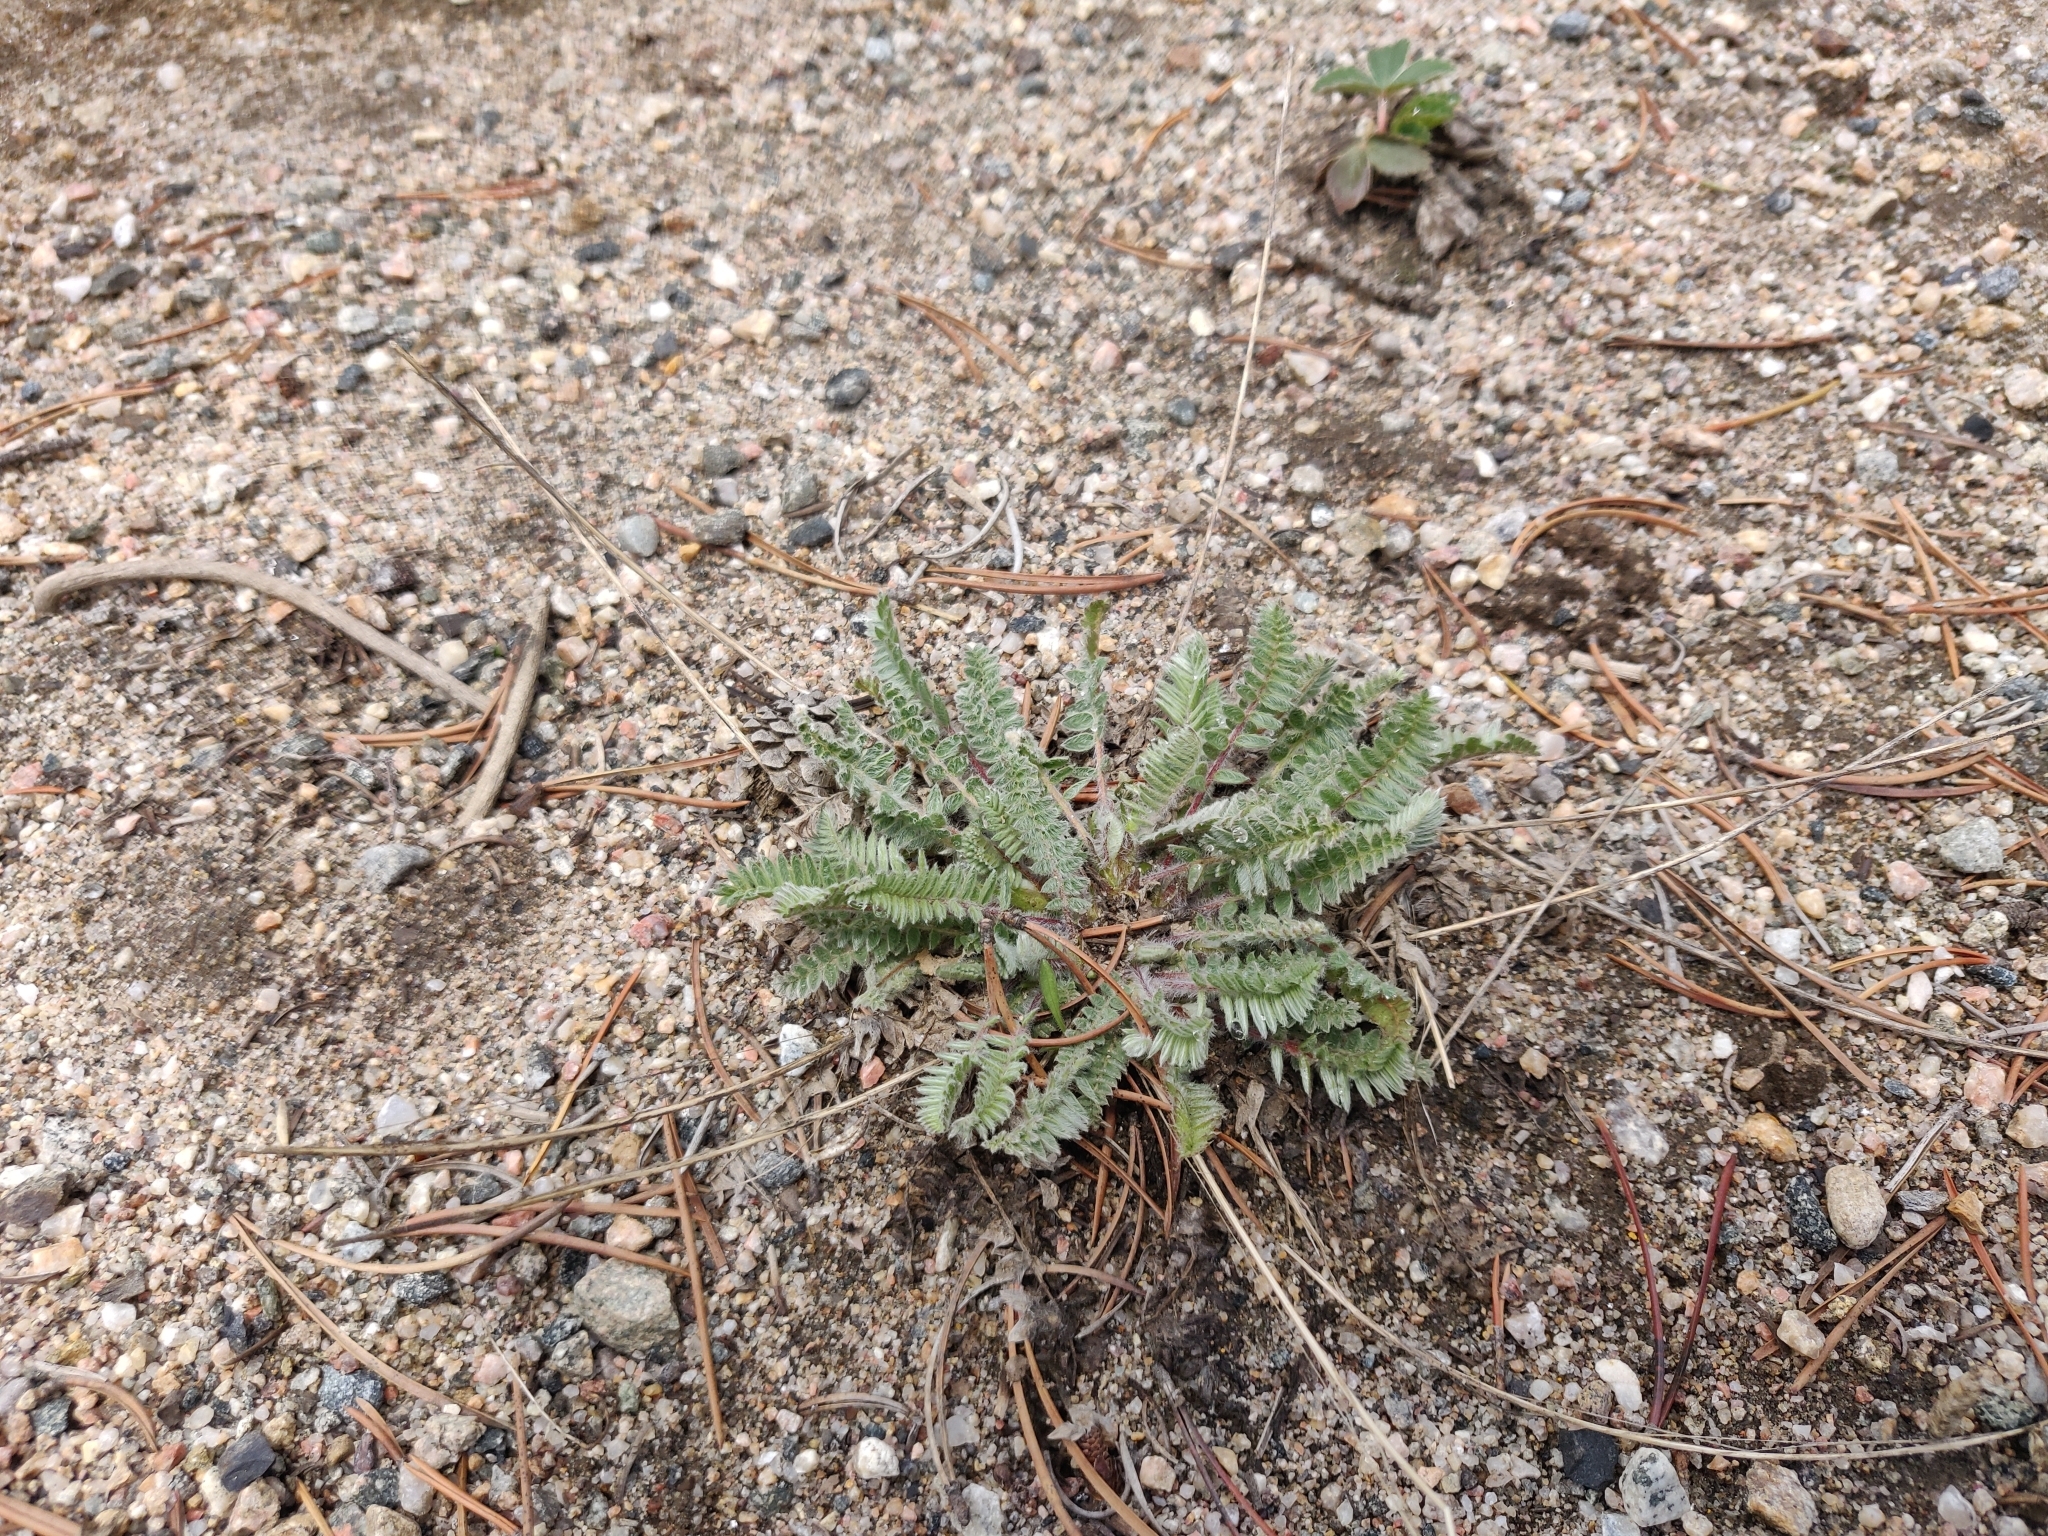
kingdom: Plantae
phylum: Tracheophyta
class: Magnoliopsida
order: Fabales
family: Fabaceae
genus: Oxytropis
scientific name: Oxytropis deflexa
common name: Stemmed oxytrope
